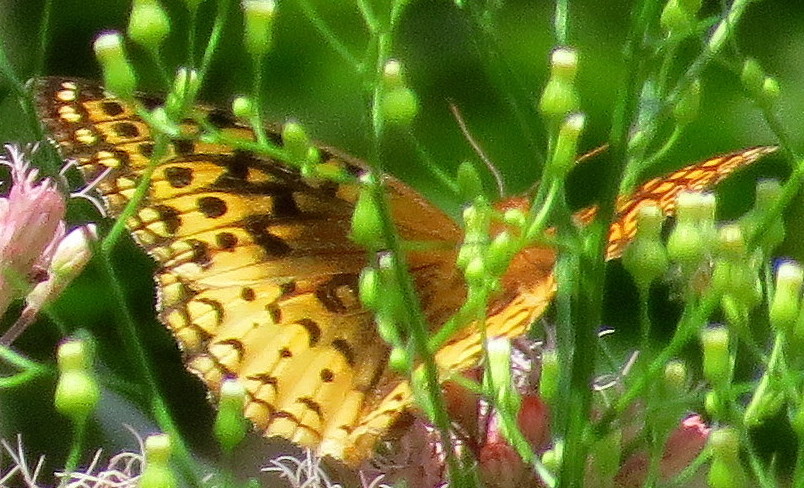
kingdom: Animalia
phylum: Arthropoda
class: Insecta
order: Lepidoptera
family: Nymphalidae
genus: Speyeria
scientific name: Speyeria cybele
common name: Great spangled fritillary
